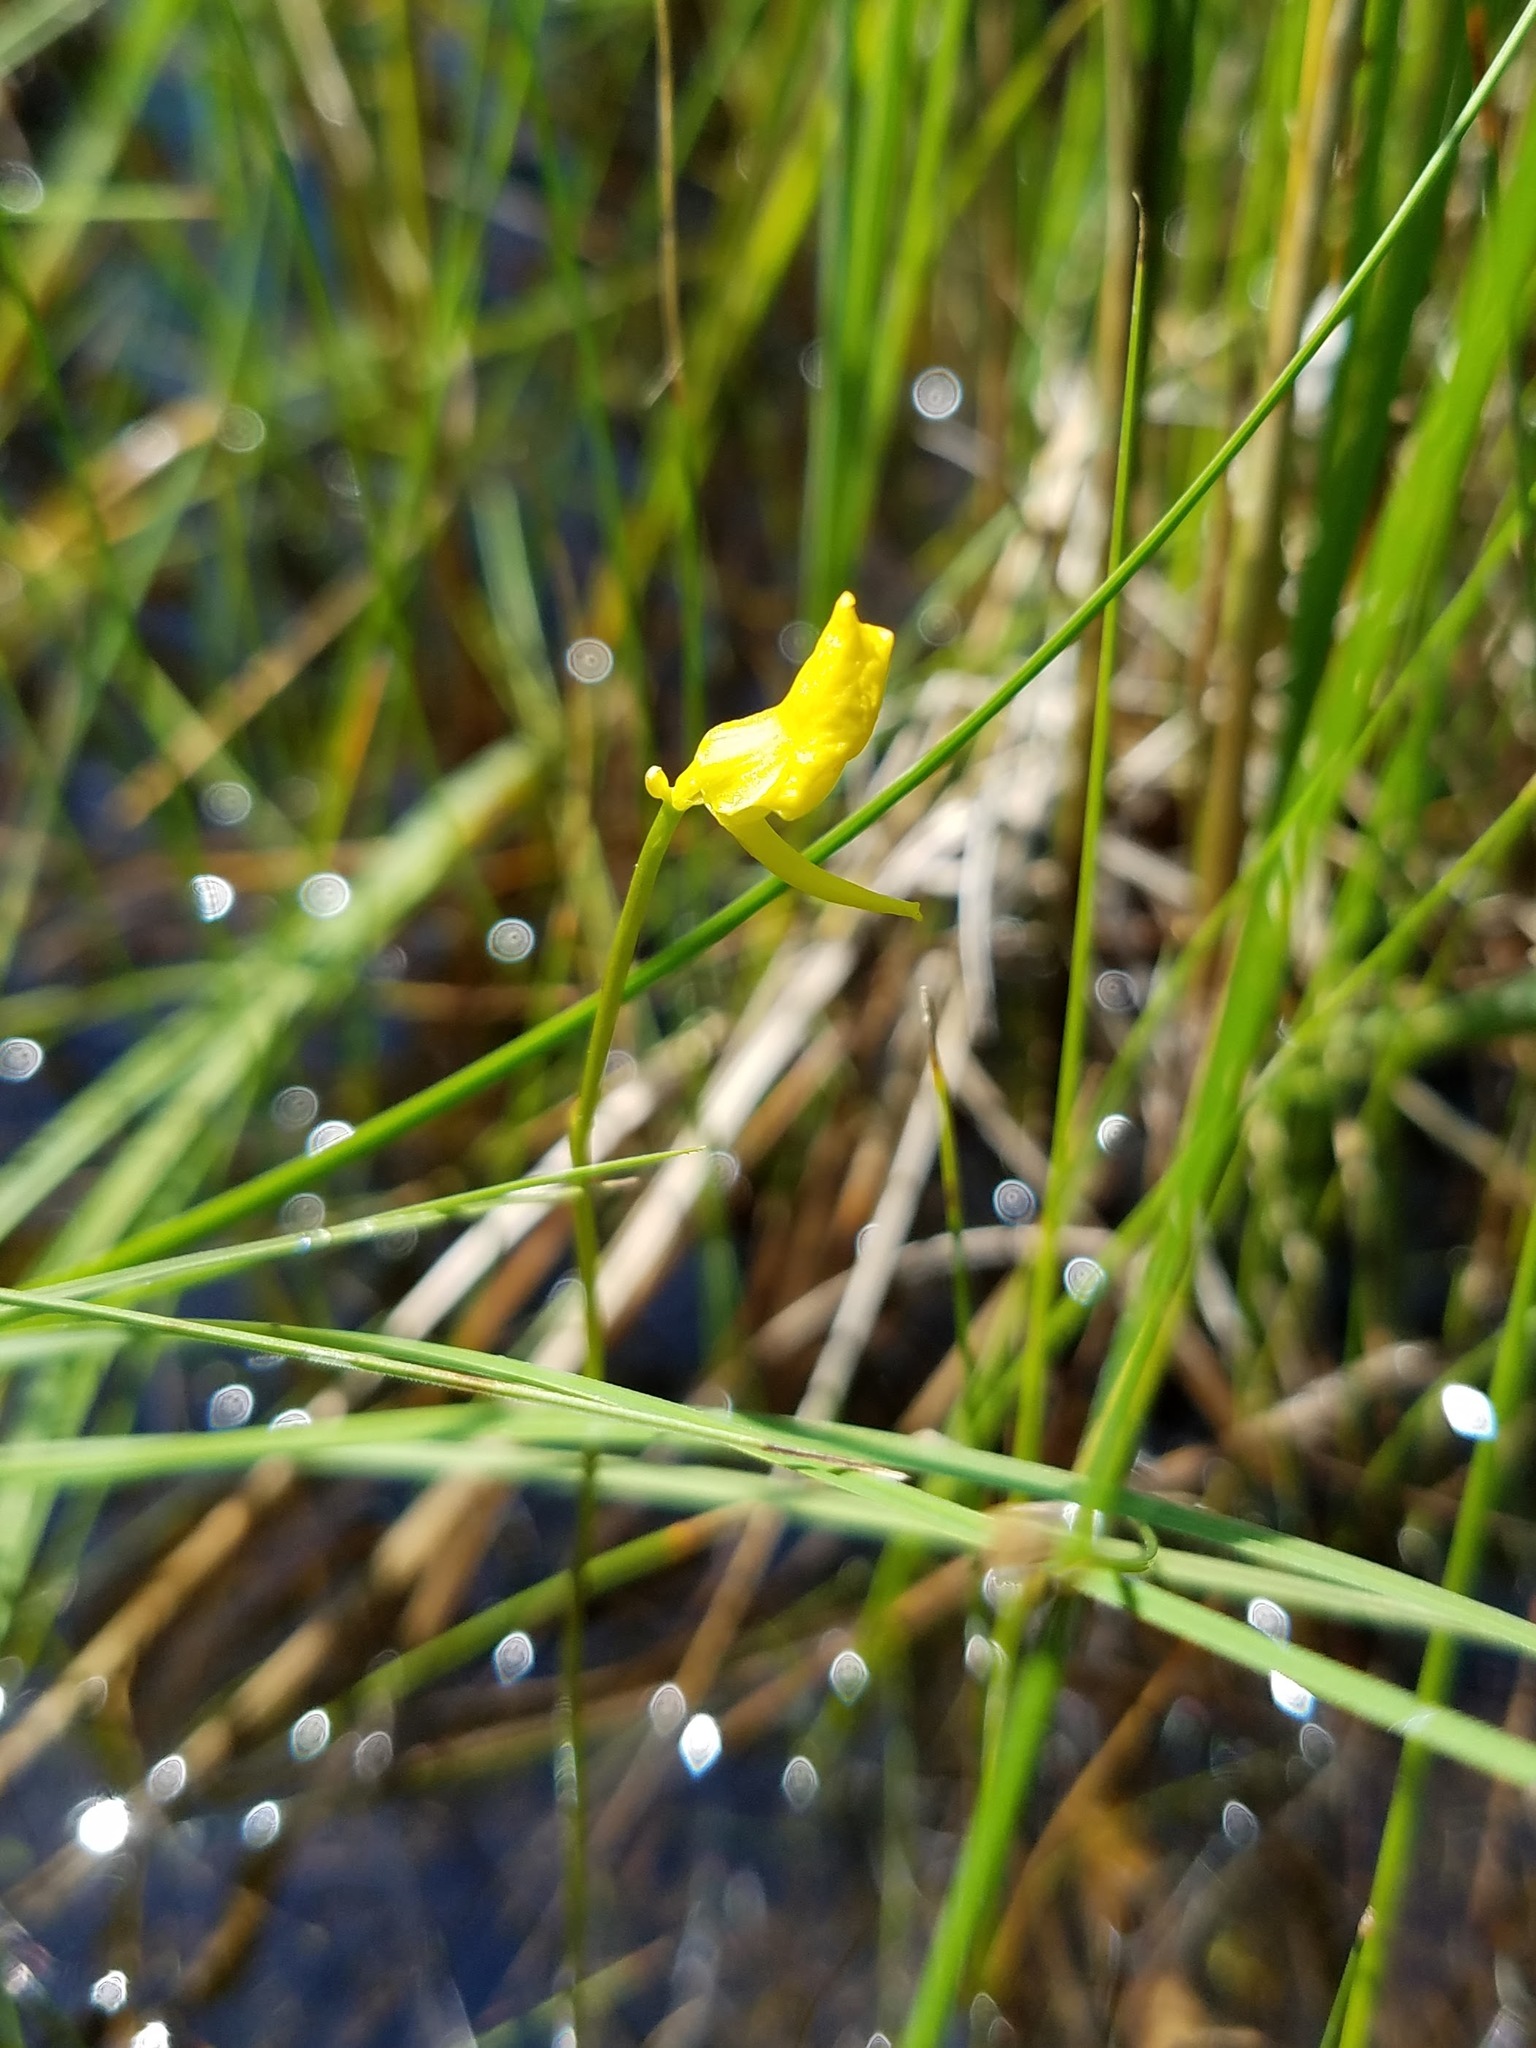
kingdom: Plantae
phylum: Tracheophyta
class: Magnoliopsida
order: Lamiales
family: Lentibulariaceae
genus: Utricularia
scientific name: Utricularia cornuta
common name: Horned bladderwort
